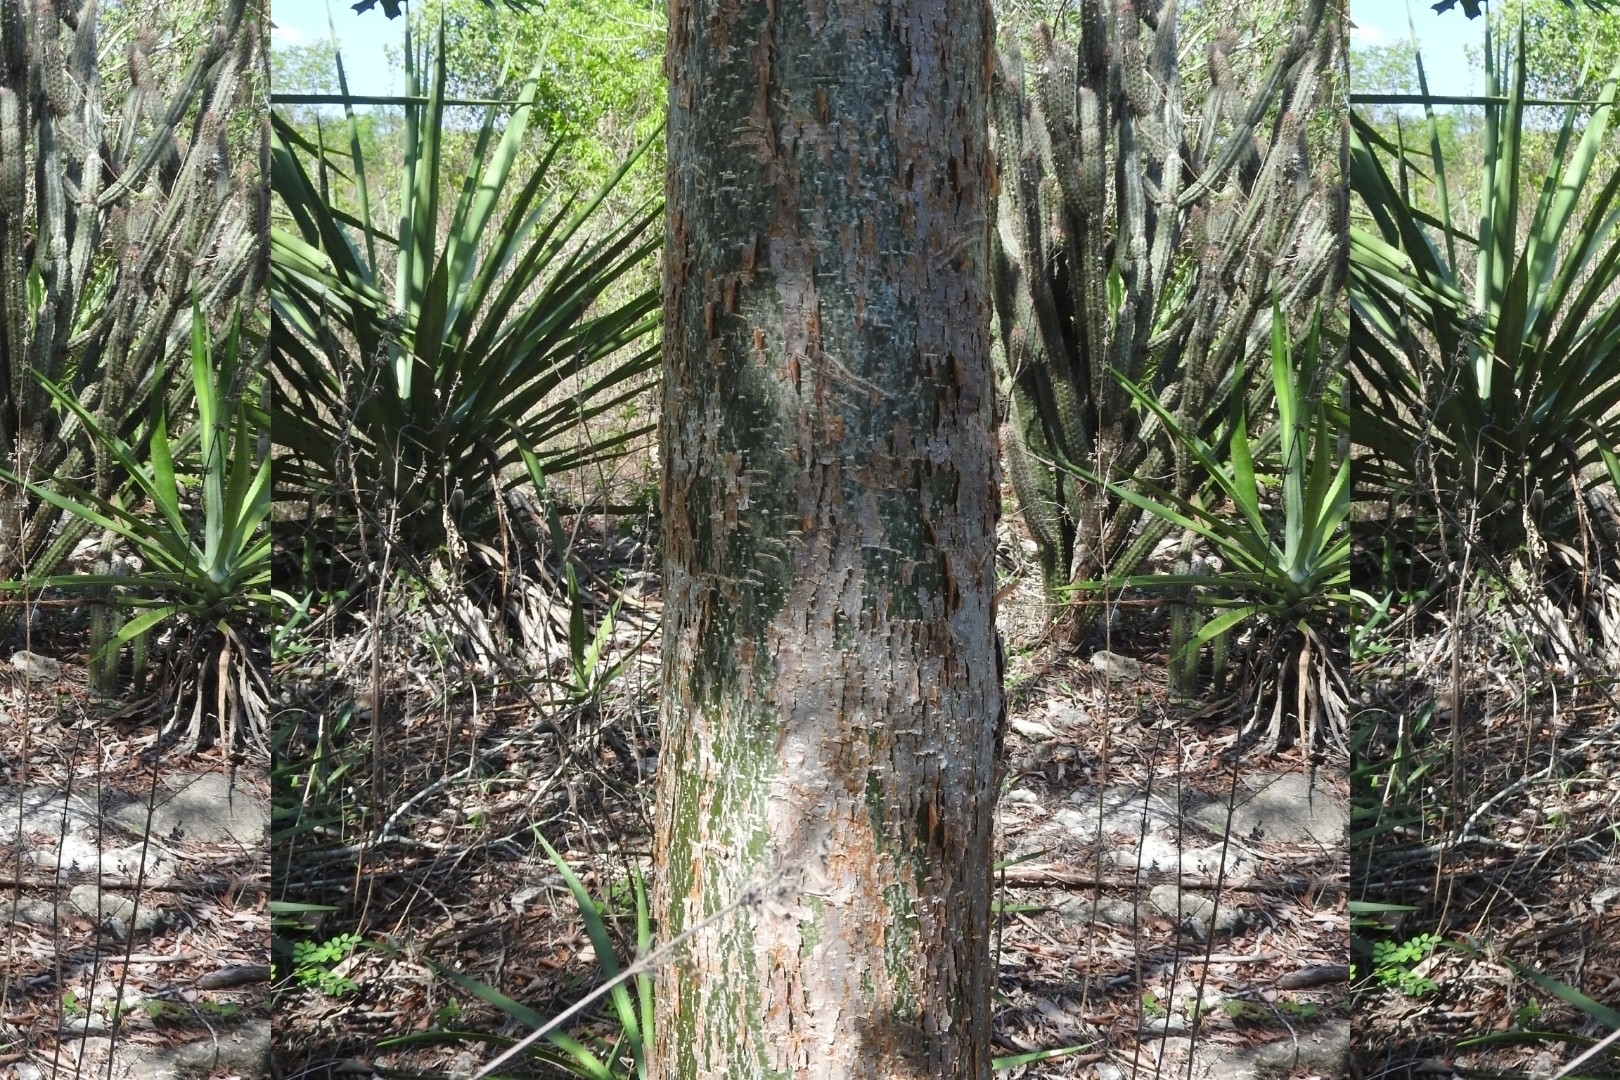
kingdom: Plantae
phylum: Tracheophyta
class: Magnoliopsida
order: Sapindales
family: Burseraceae
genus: Bursera
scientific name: Bursera simaruba
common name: Turpentine tree
